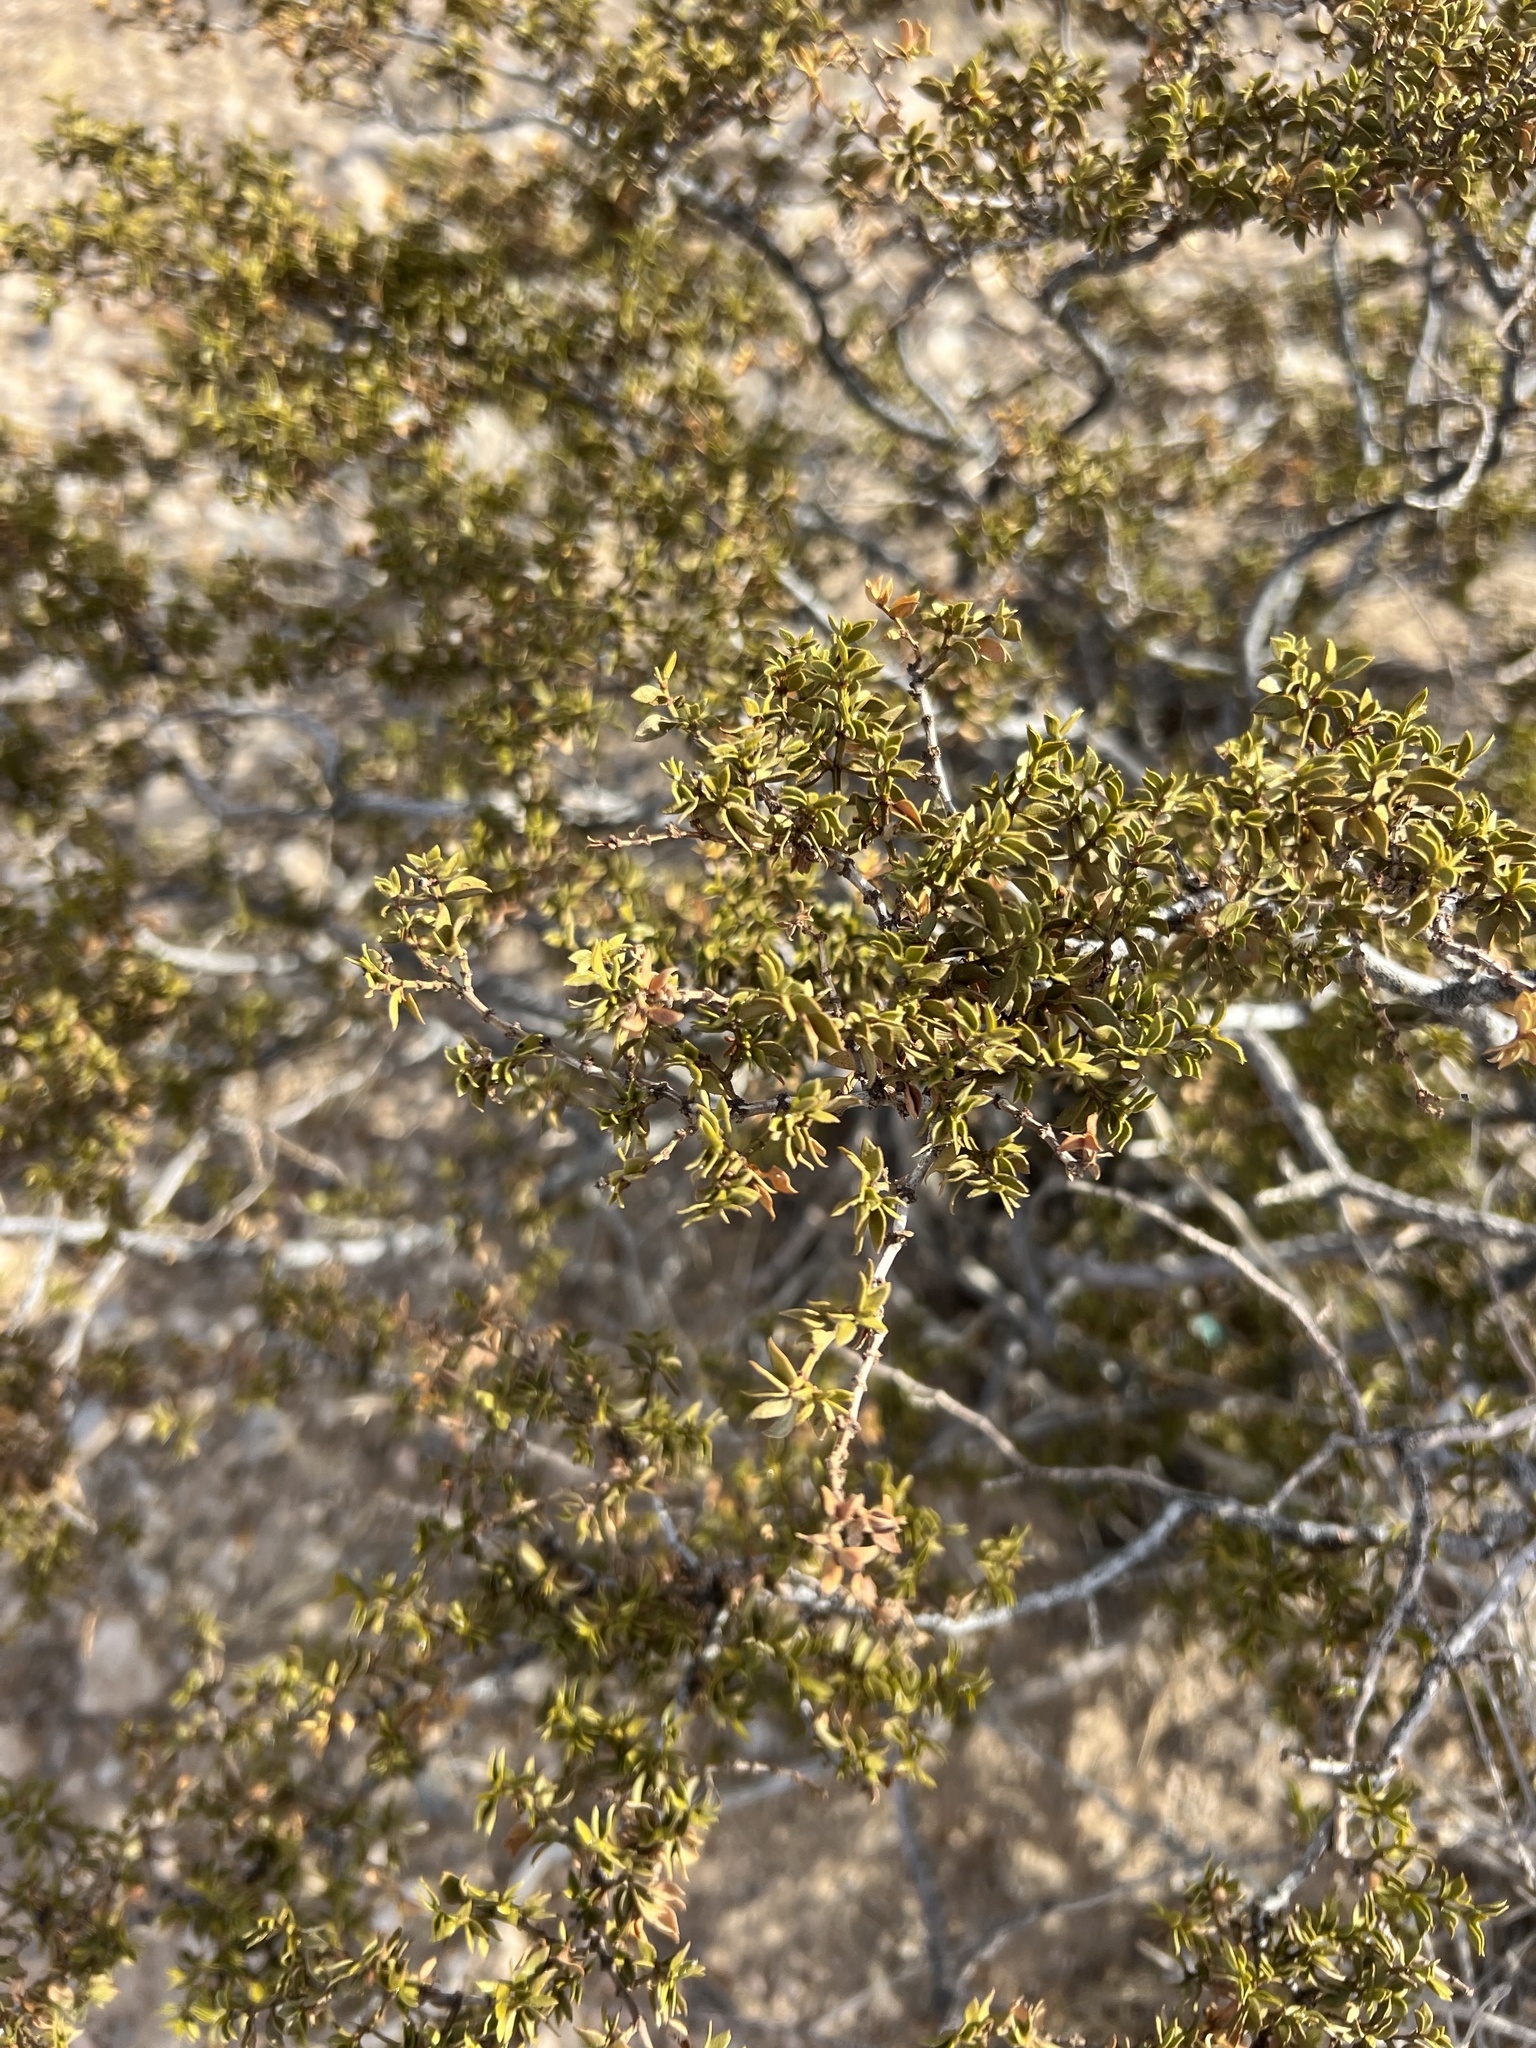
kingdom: Plantae
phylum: Tracheophyta
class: Magnoliopsida
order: Zygophyllales
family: Zygophyllaceae
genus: Larrea
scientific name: Larrea tridentata
